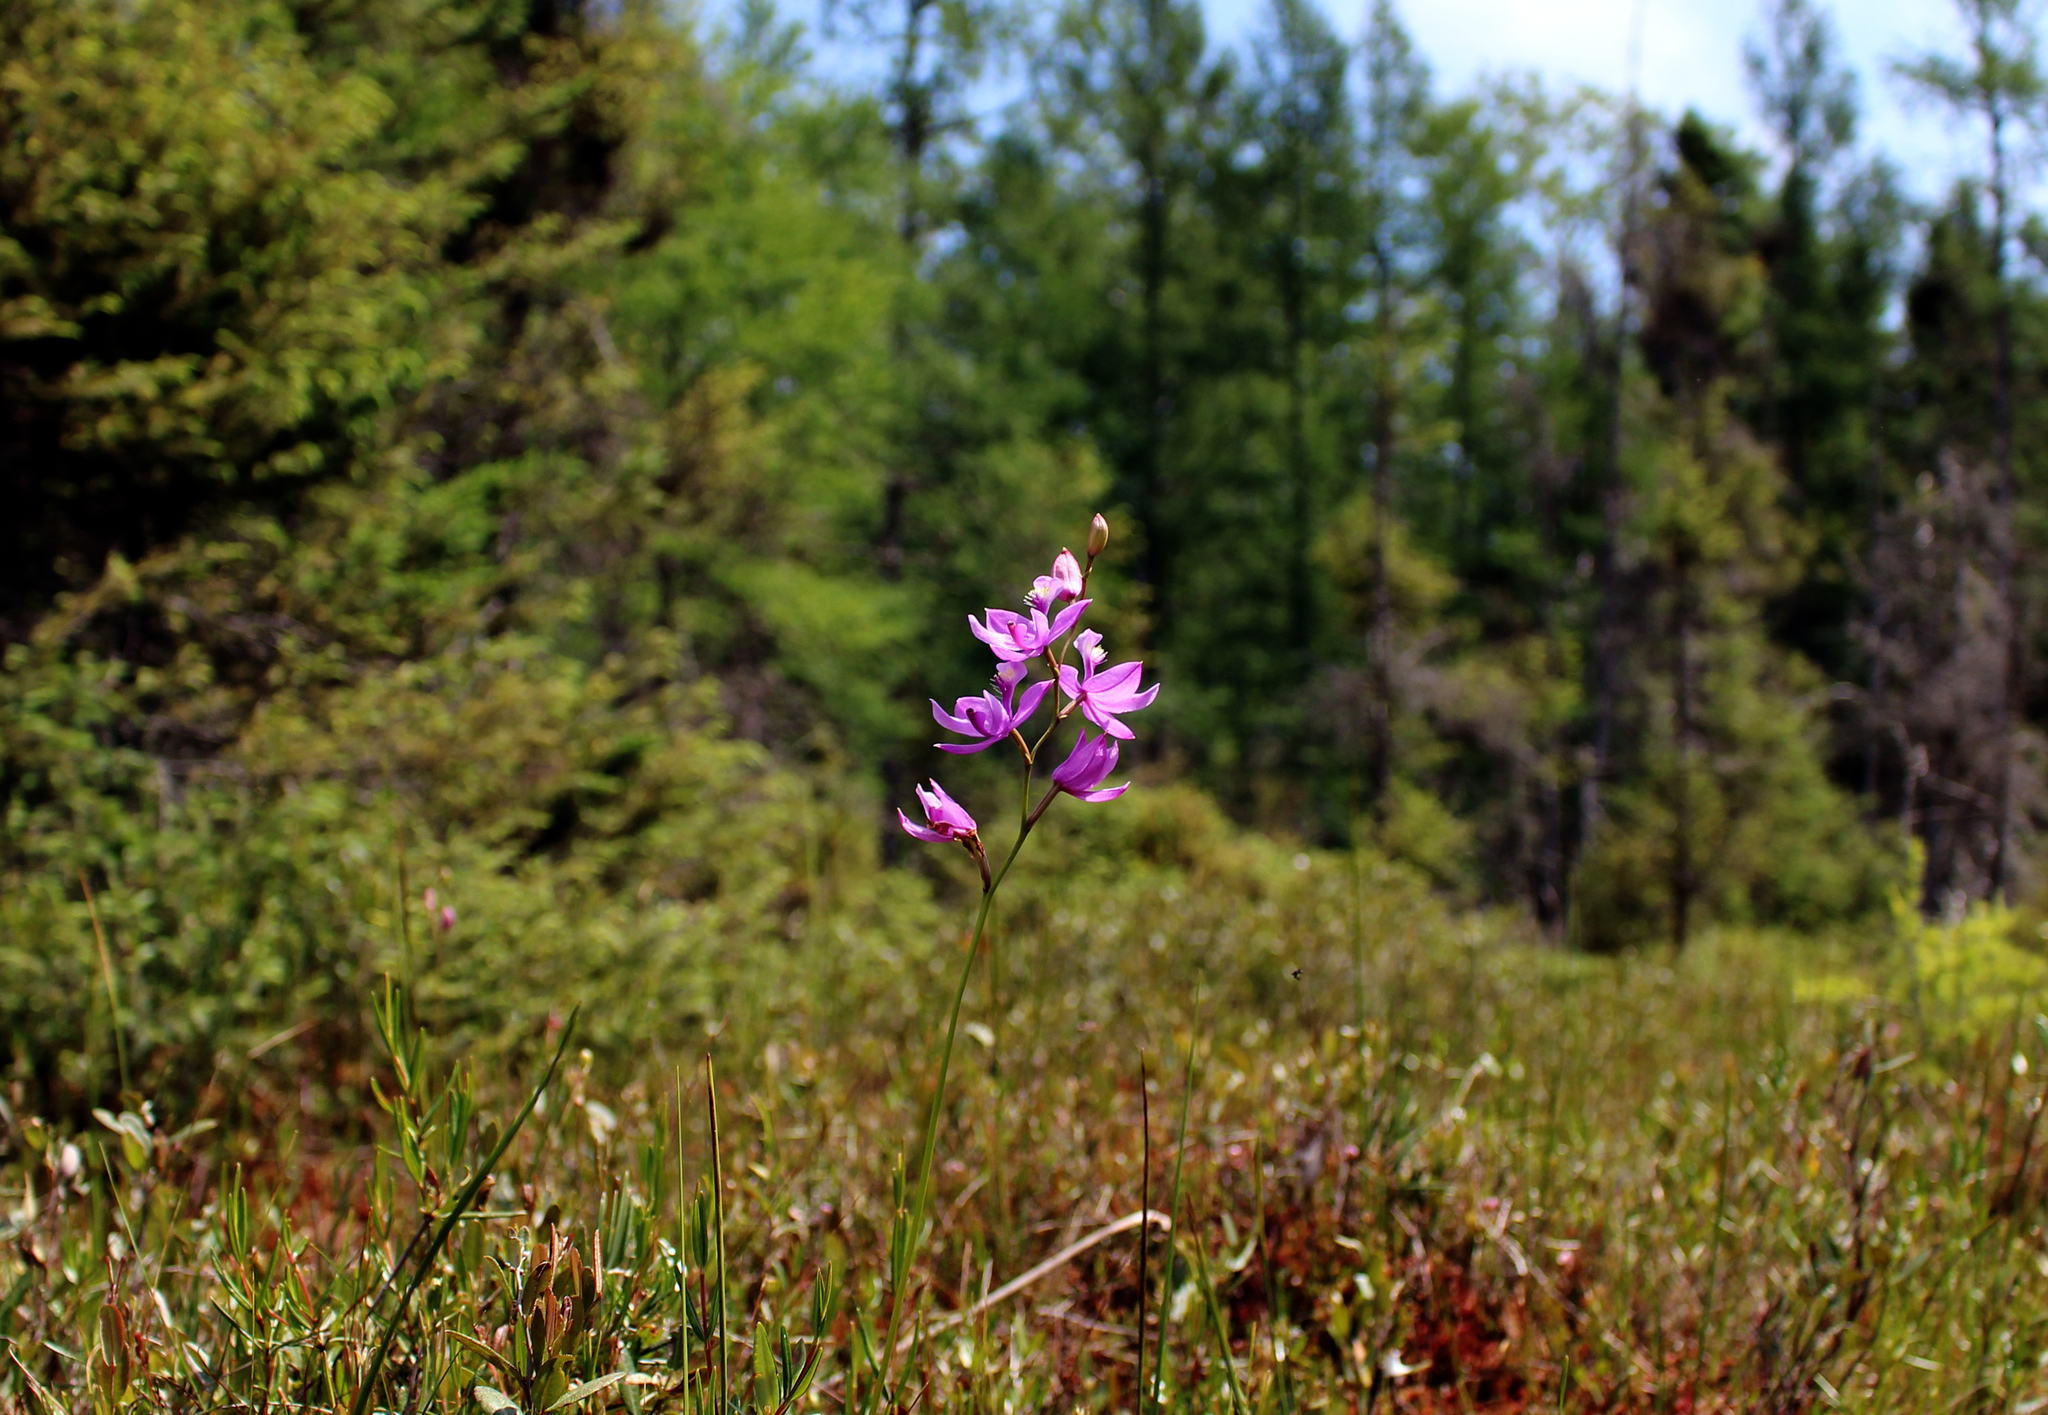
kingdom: Plantae
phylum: Tracheophyta
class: Liliopsida
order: Asparagales
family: Orchidaceae
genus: Calopogon
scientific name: Calopogon tuberosus
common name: Grass-pink
